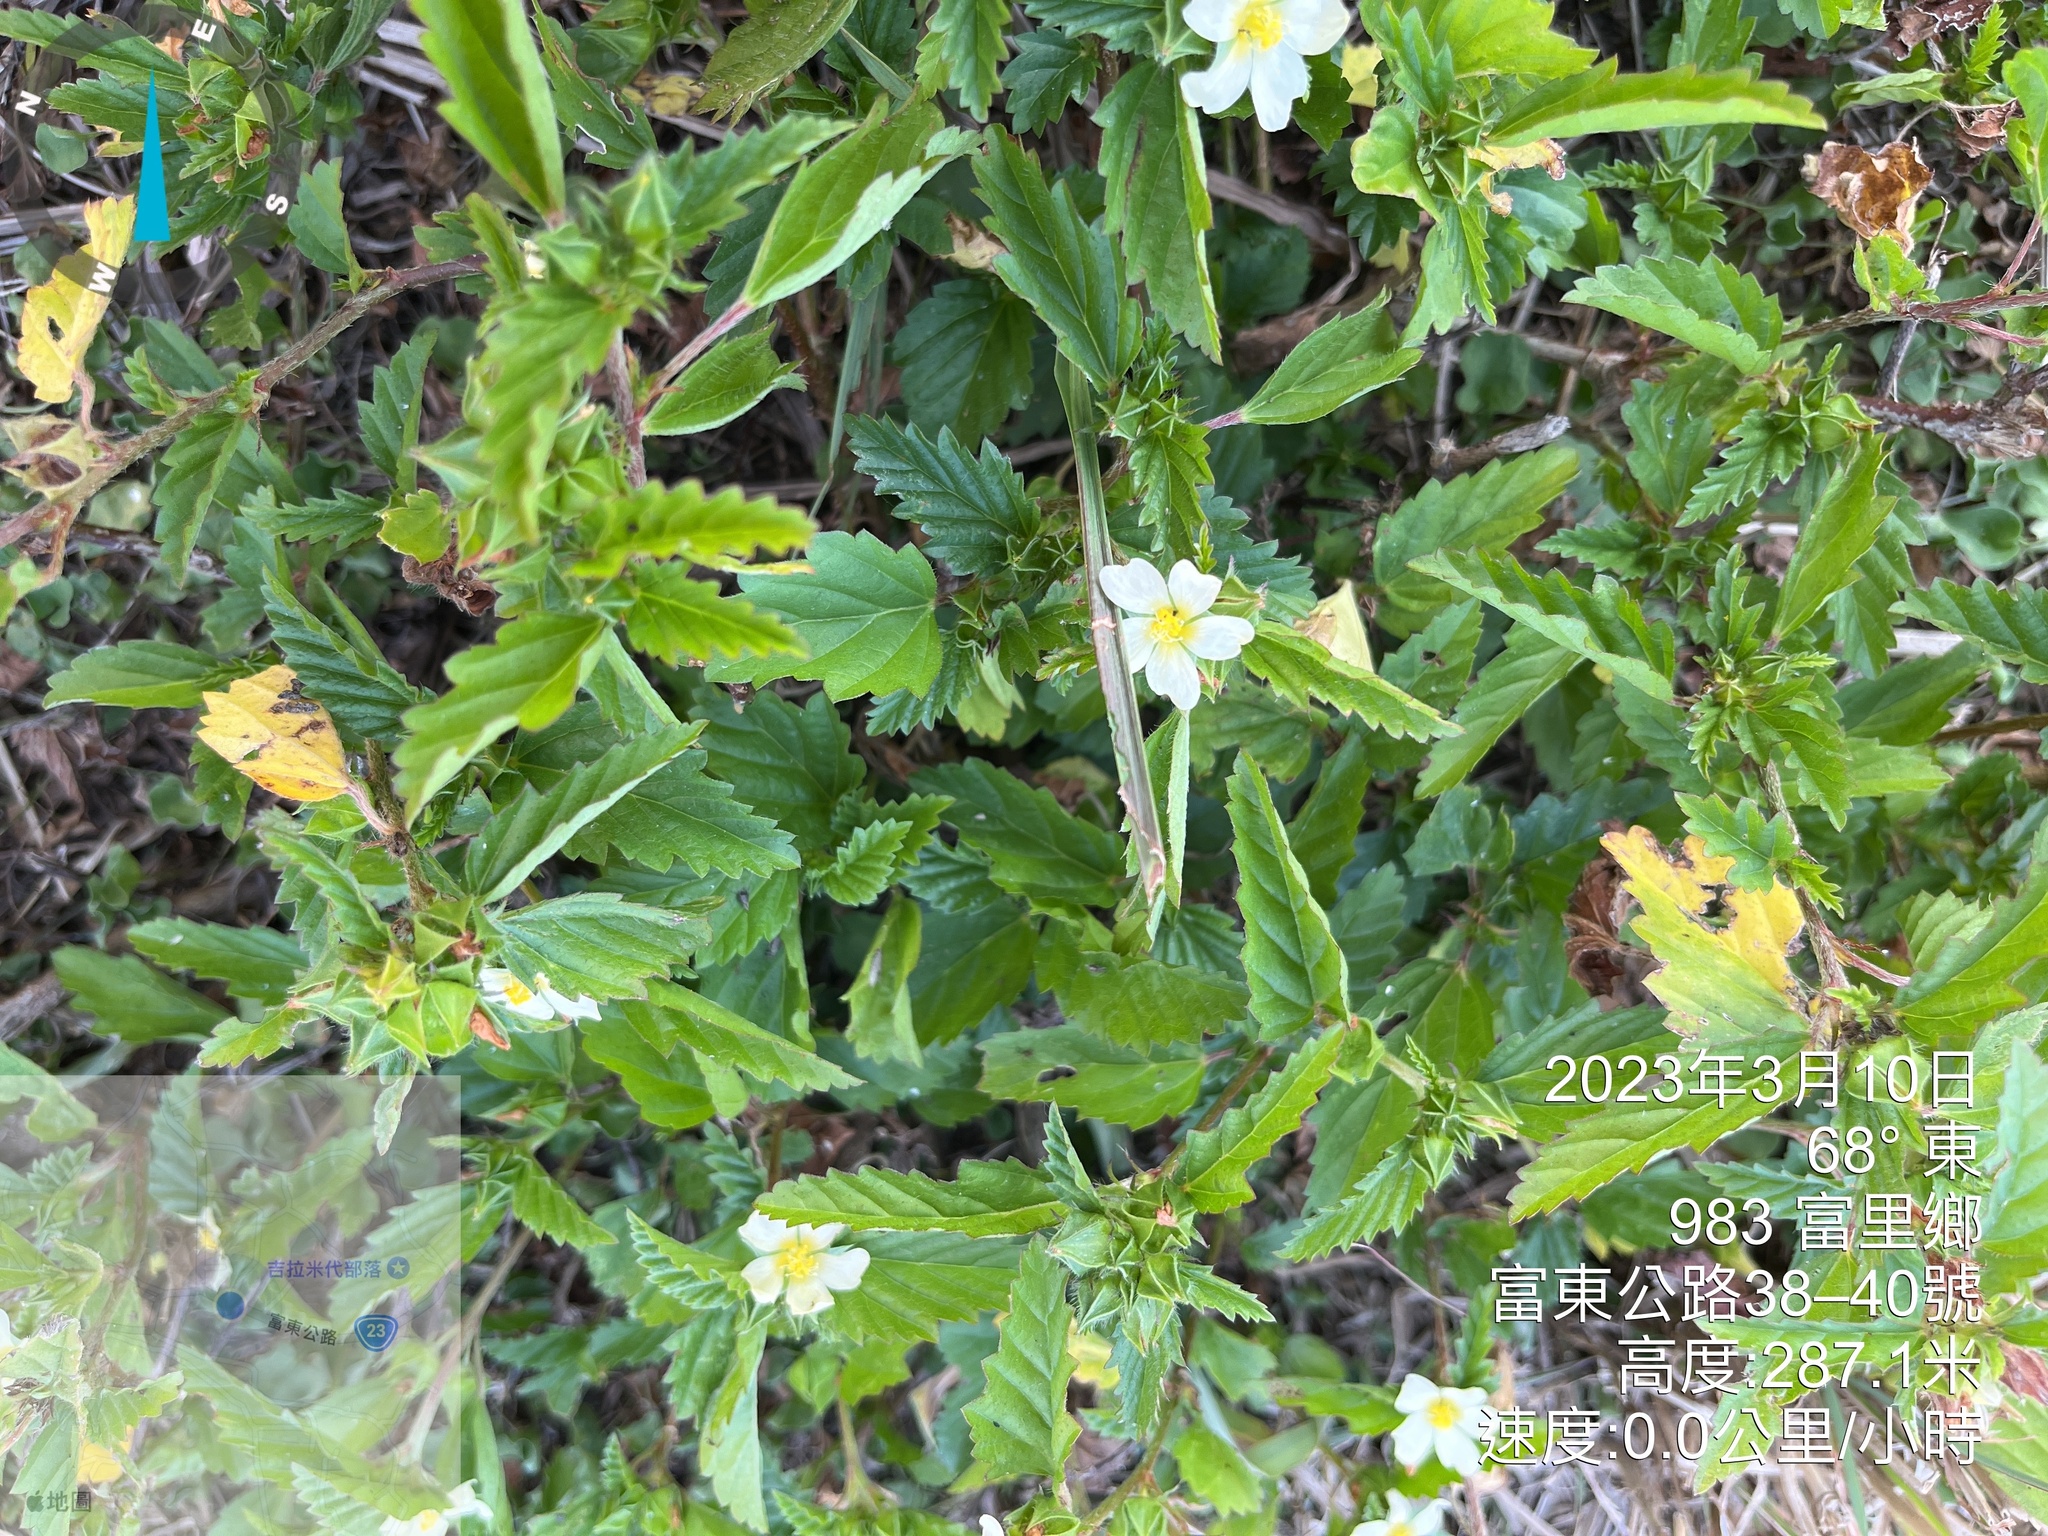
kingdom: Plantae
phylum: Tracheophyta
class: Magnoliopsida
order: Malvales
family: Malvaceae
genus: Malvastrum
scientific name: Malvastrum coromandelianum
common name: Threelobe false mallow
